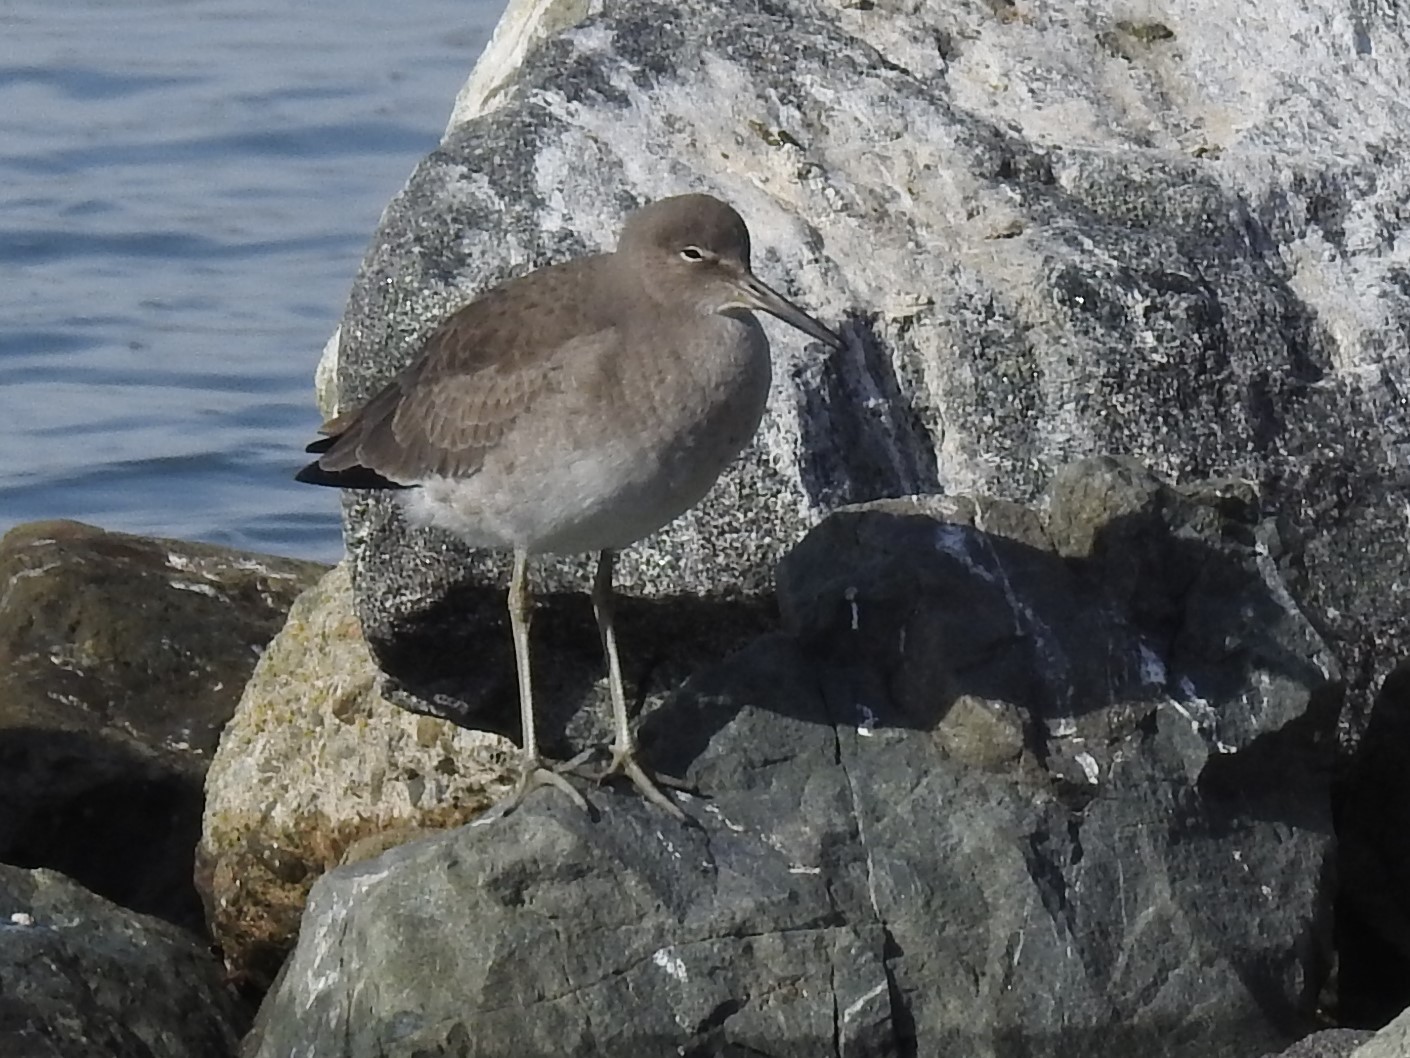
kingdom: Animalia
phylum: Chordata
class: Aves
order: Charadriiformes
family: Scolopacidae
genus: Tringa
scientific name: Tringa semipalmata
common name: Willet
